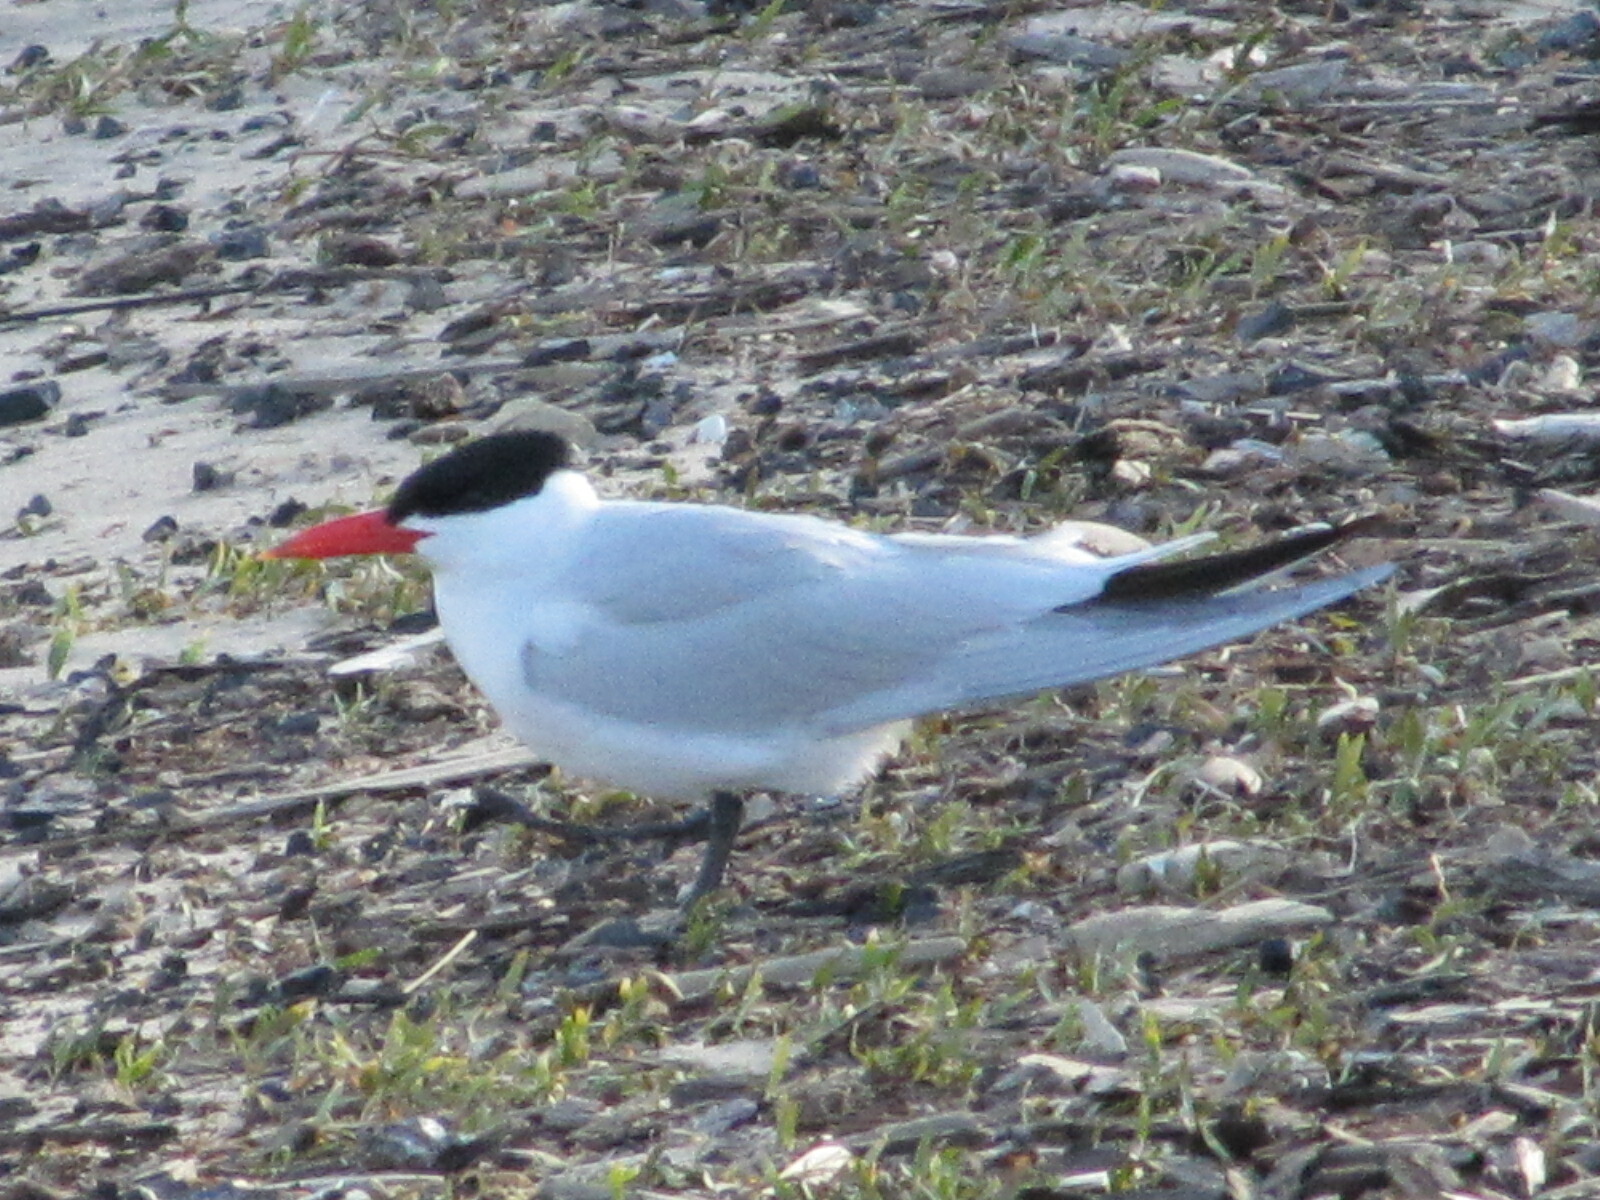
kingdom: Animalia
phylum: Chordata
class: Aves
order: Charadriiformes
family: Laridae
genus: Hydroprogne
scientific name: Hydroprogne caspia
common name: Caspian tern
